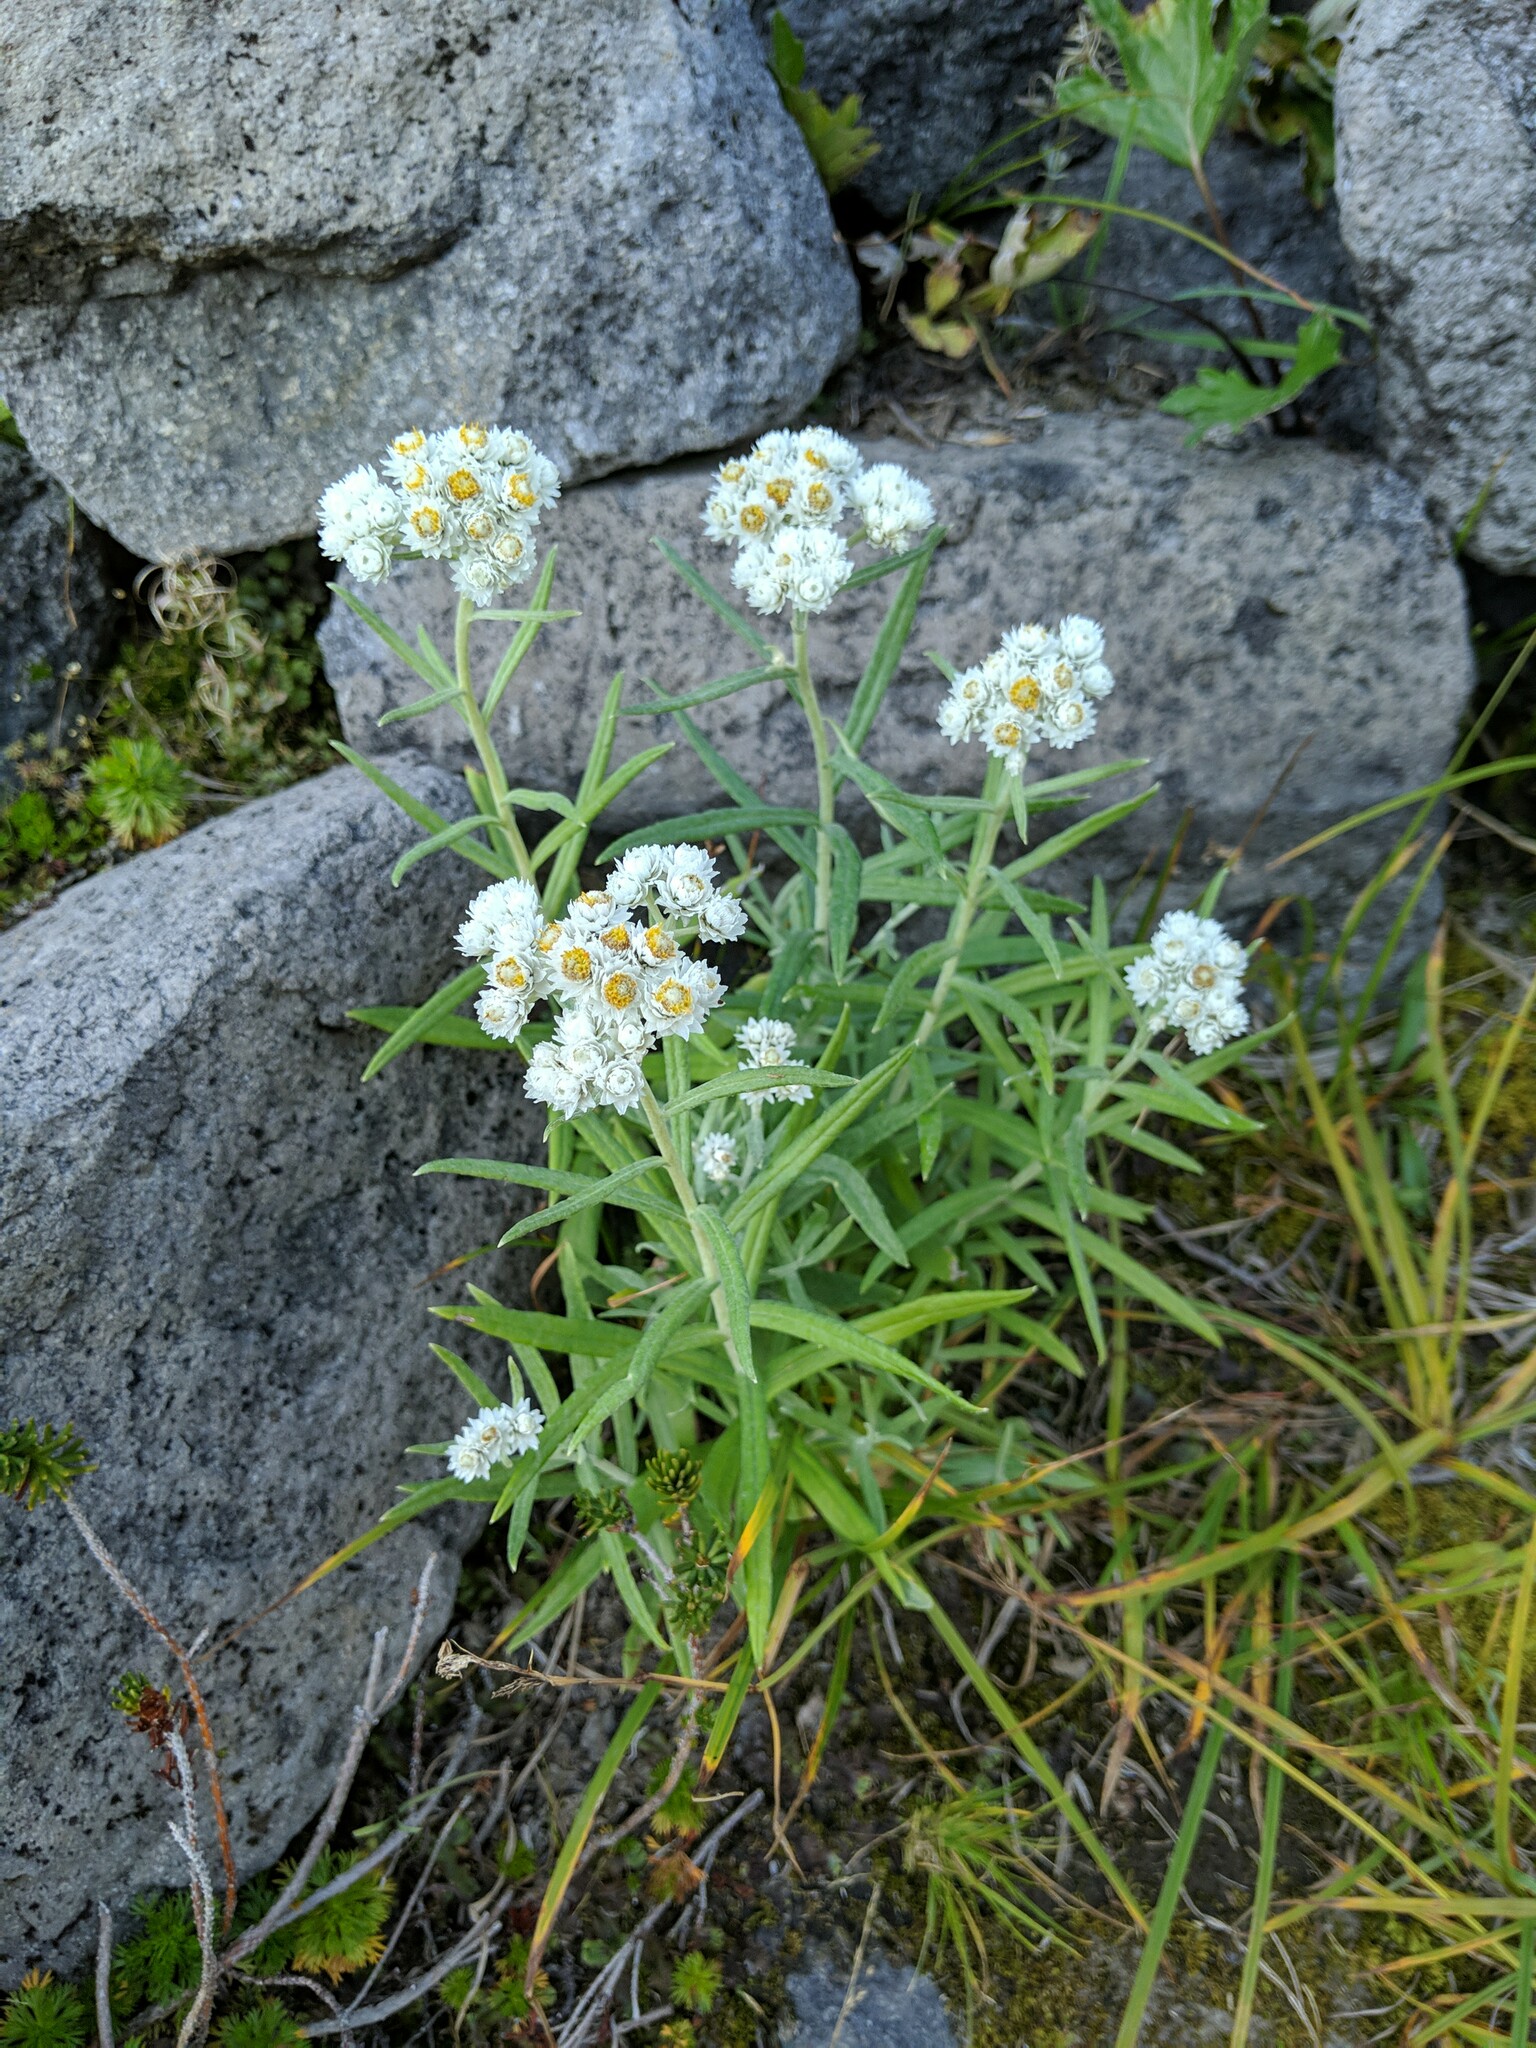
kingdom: Plantae
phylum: Tracheophyta
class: Magnoliopsida
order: Asterales
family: Asteraceae
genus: Anaphalis
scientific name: Anaphalis margaritacea
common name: Pearly everlasting
